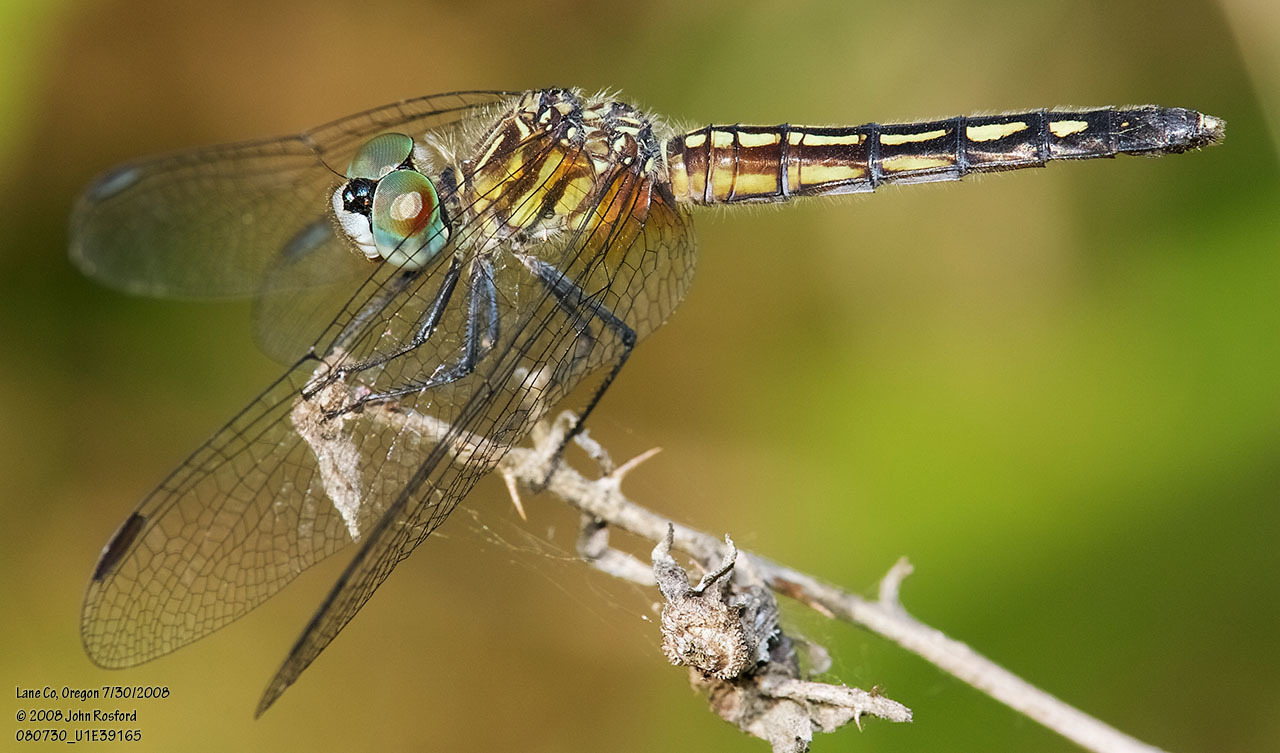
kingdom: Animalia
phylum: Arthropoda
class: Insecta
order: Odonata
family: Libellulidae
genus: Pachydiplax
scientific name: Pachydiplax longipennis
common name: Blue dasher
